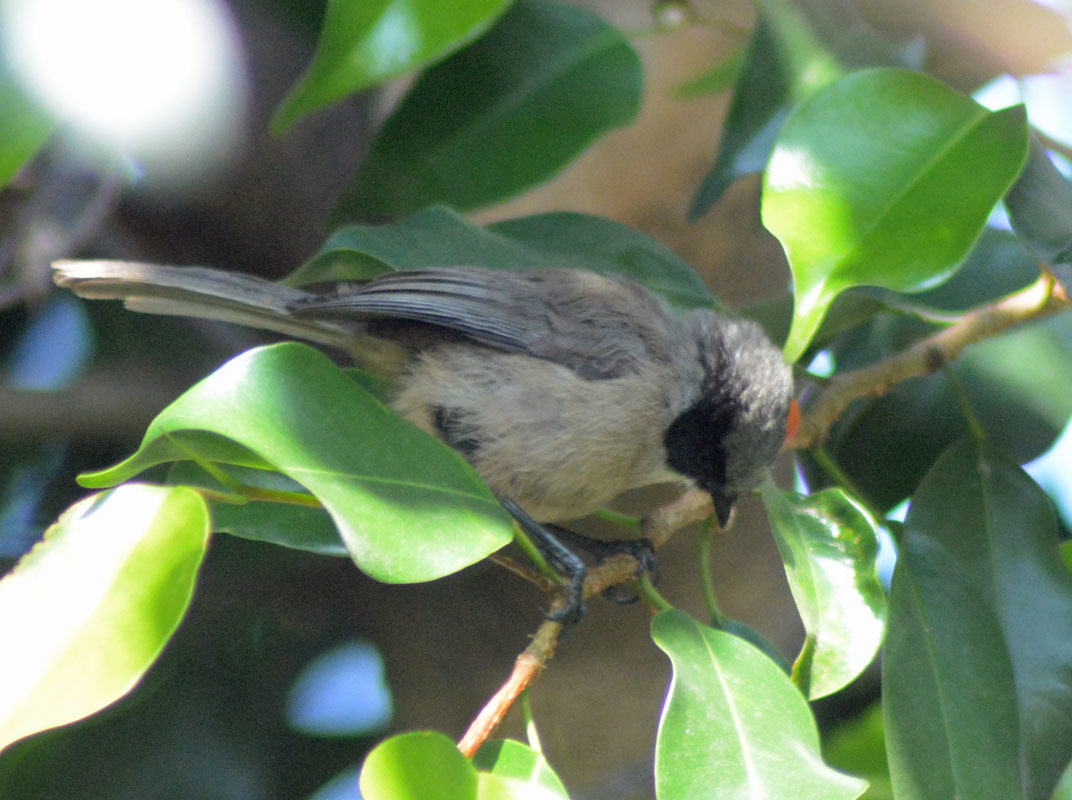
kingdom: Animalia
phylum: Chordata
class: Aves
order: Passeriformes
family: Aegithalidae
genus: Psaltriparus
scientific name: Psaltriparus minimus
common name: American bushtit
